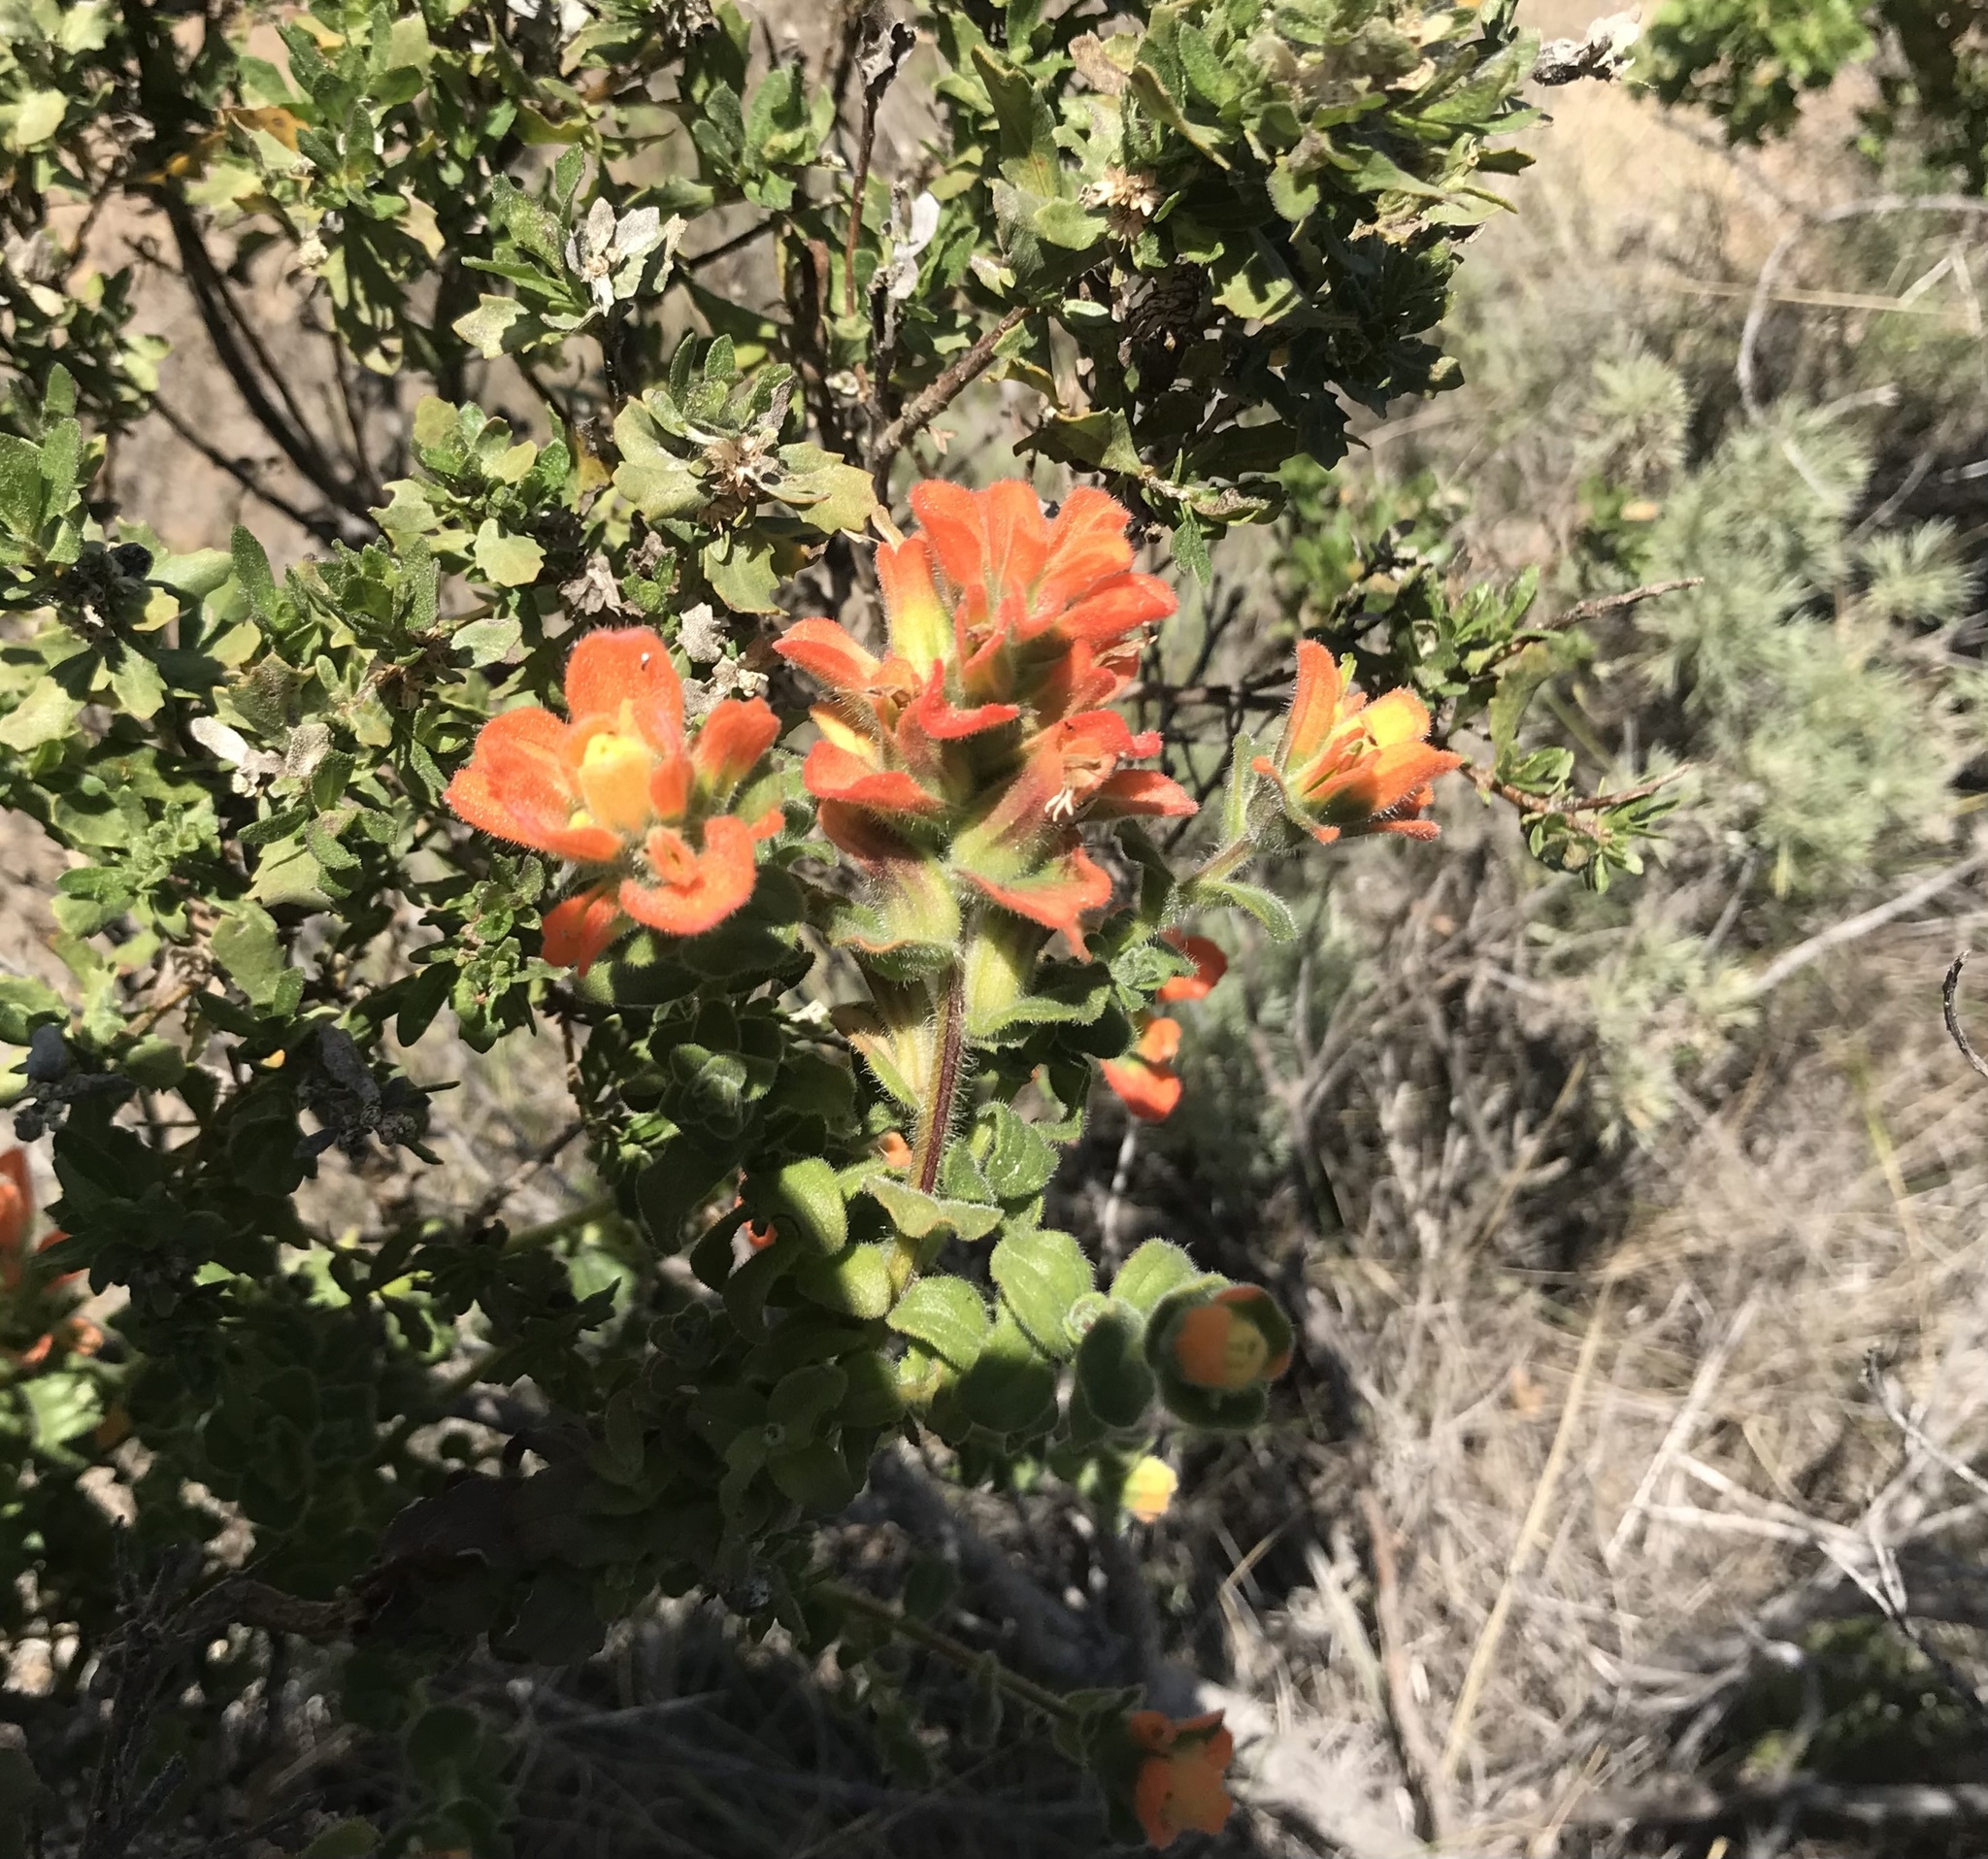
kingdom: Plantae
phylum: Tracheophyta
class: Magnoliopsida
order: Lamiales
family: Orobanchaceae
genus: Castilleja
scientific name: Castilleja latifolia
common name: Monterey indian paintbrush
